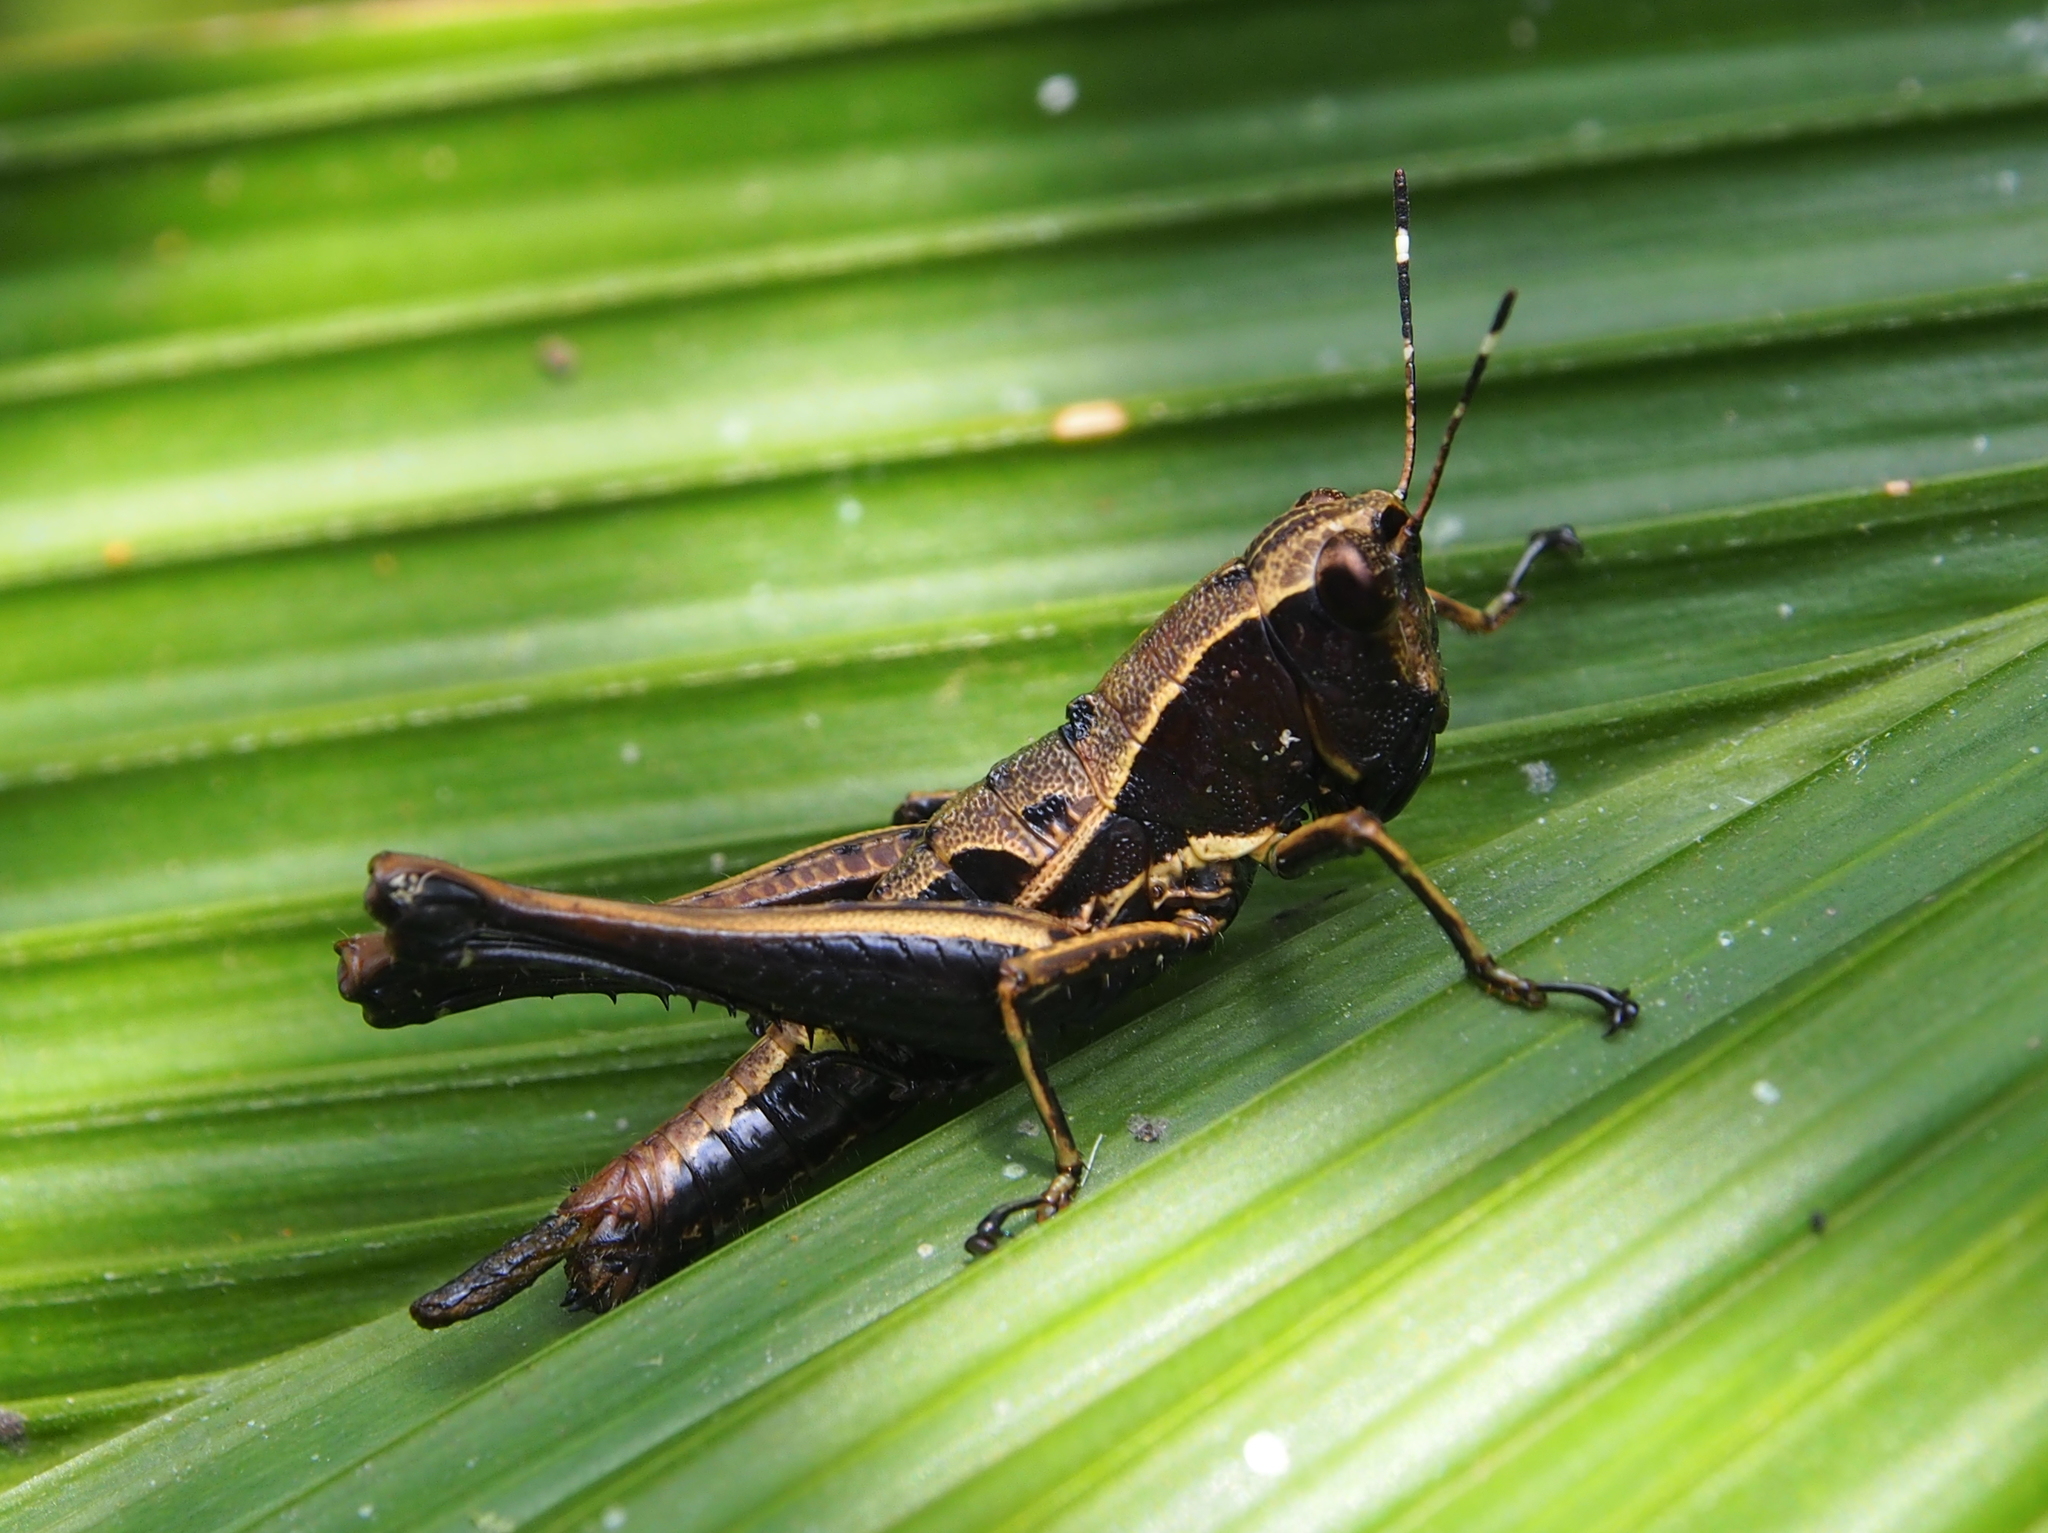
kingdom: Animalia
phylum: Arthropoda
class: Insecta
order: Orthoptera
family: Acrididae
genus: Microtylopteryx
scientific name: Microtylopteryx hebardi
